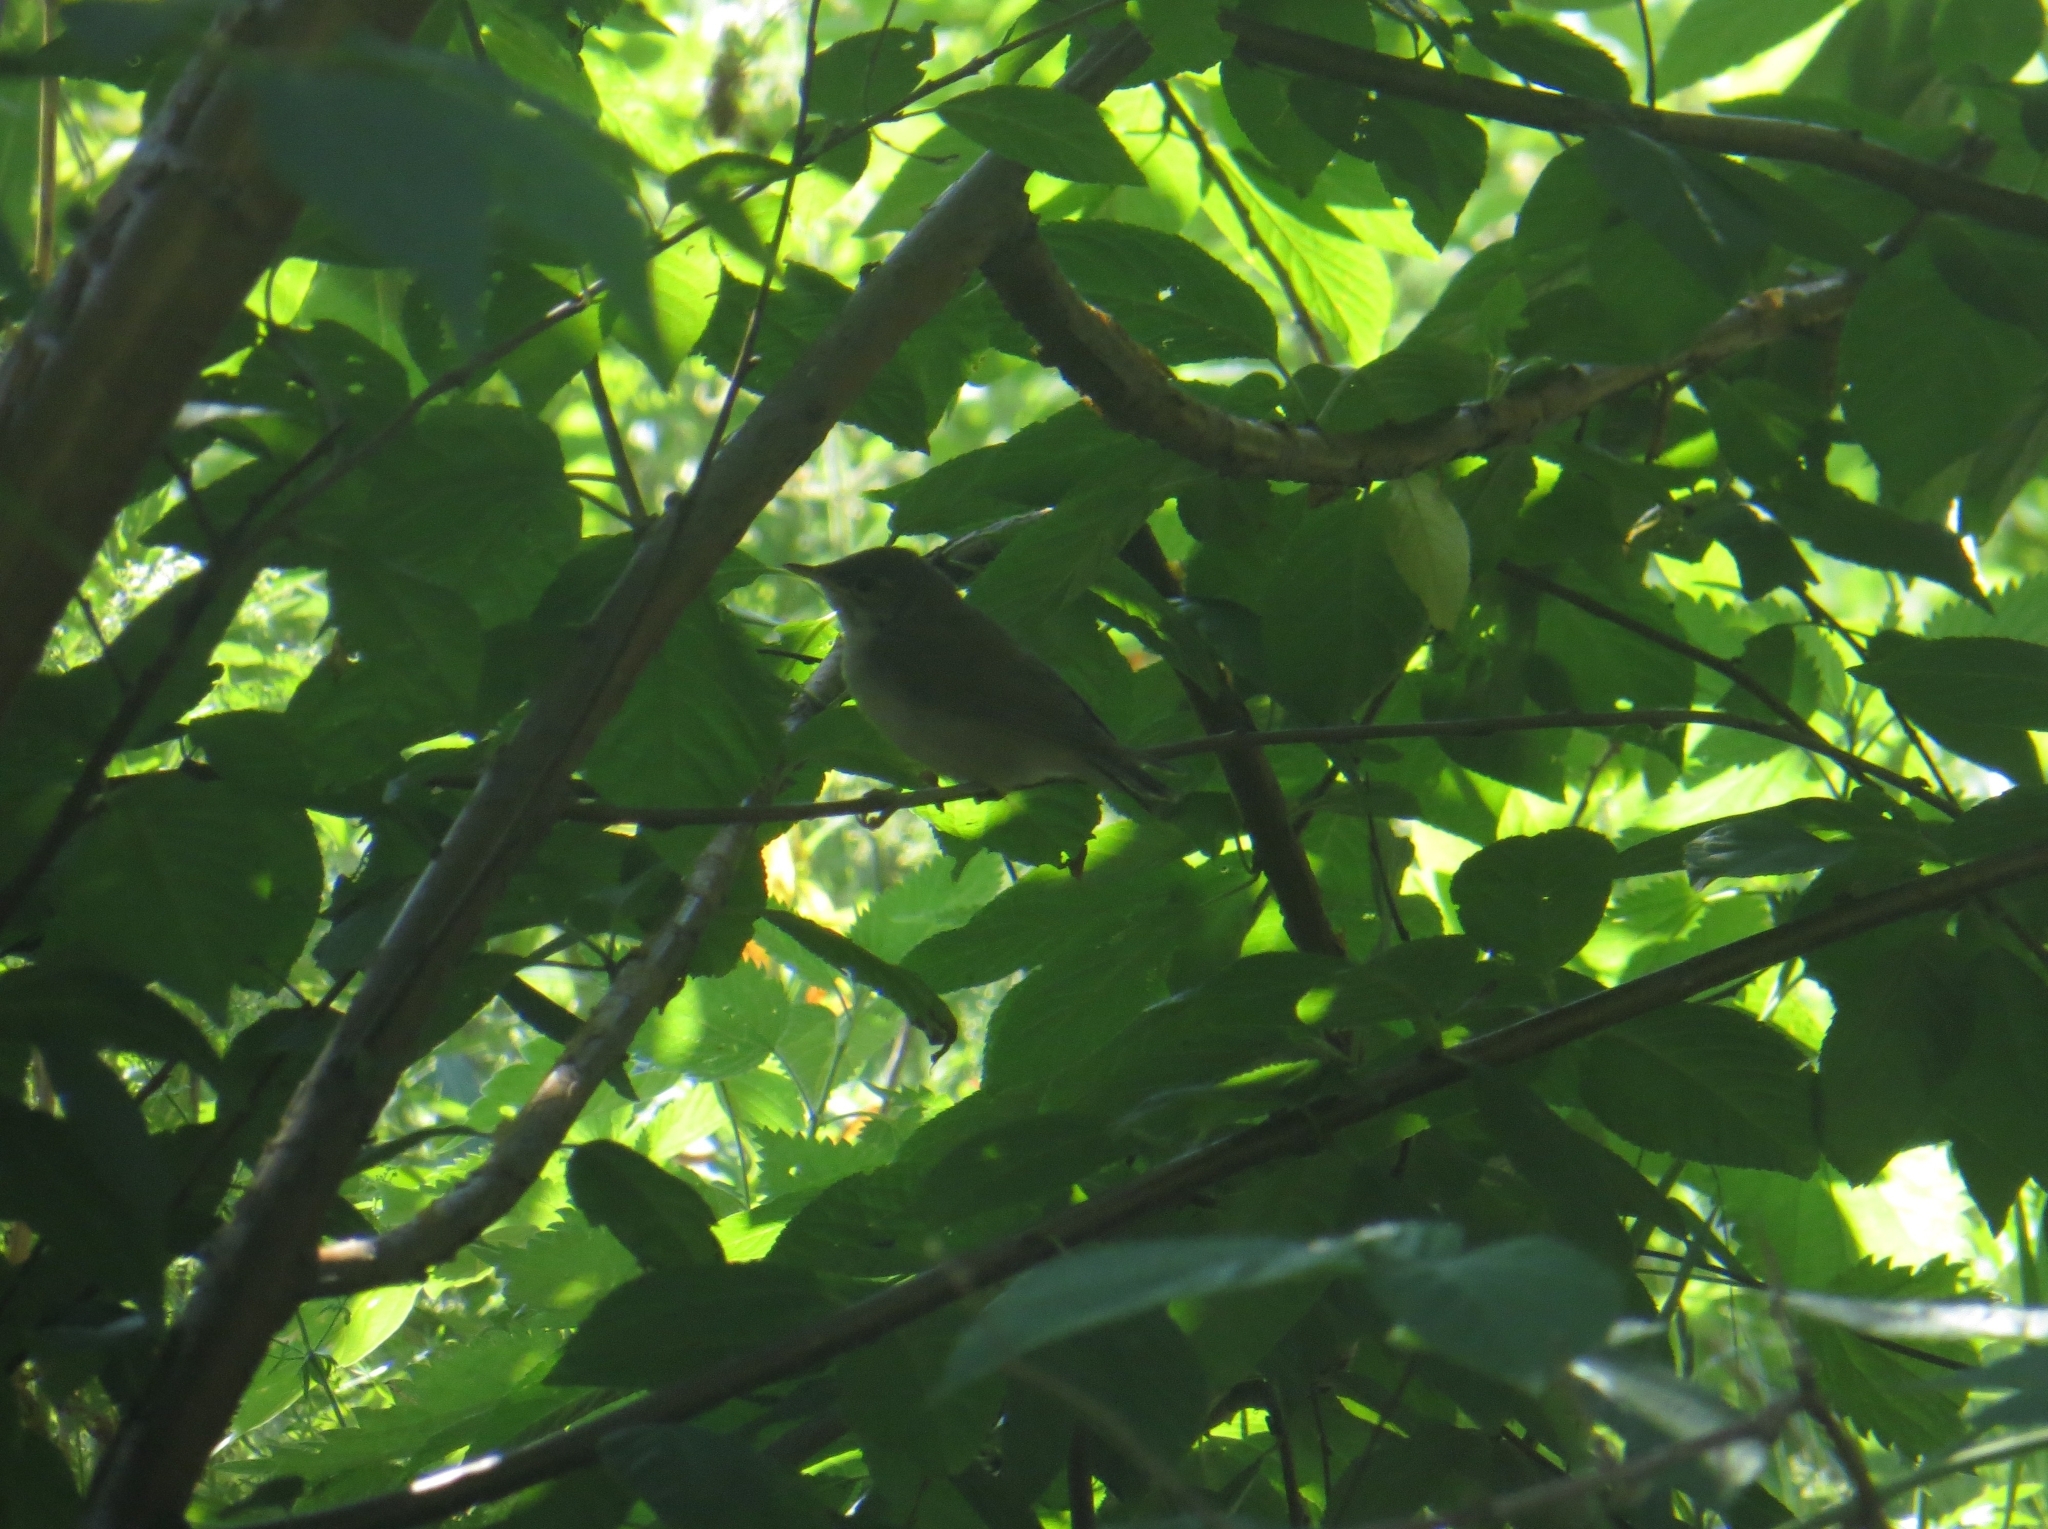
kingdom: Animalia
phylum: Chordata
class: Aves
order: Passeriformes
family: Sylviidae
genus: Sylvia
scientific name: Sylvia borin
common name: Garden warbler
